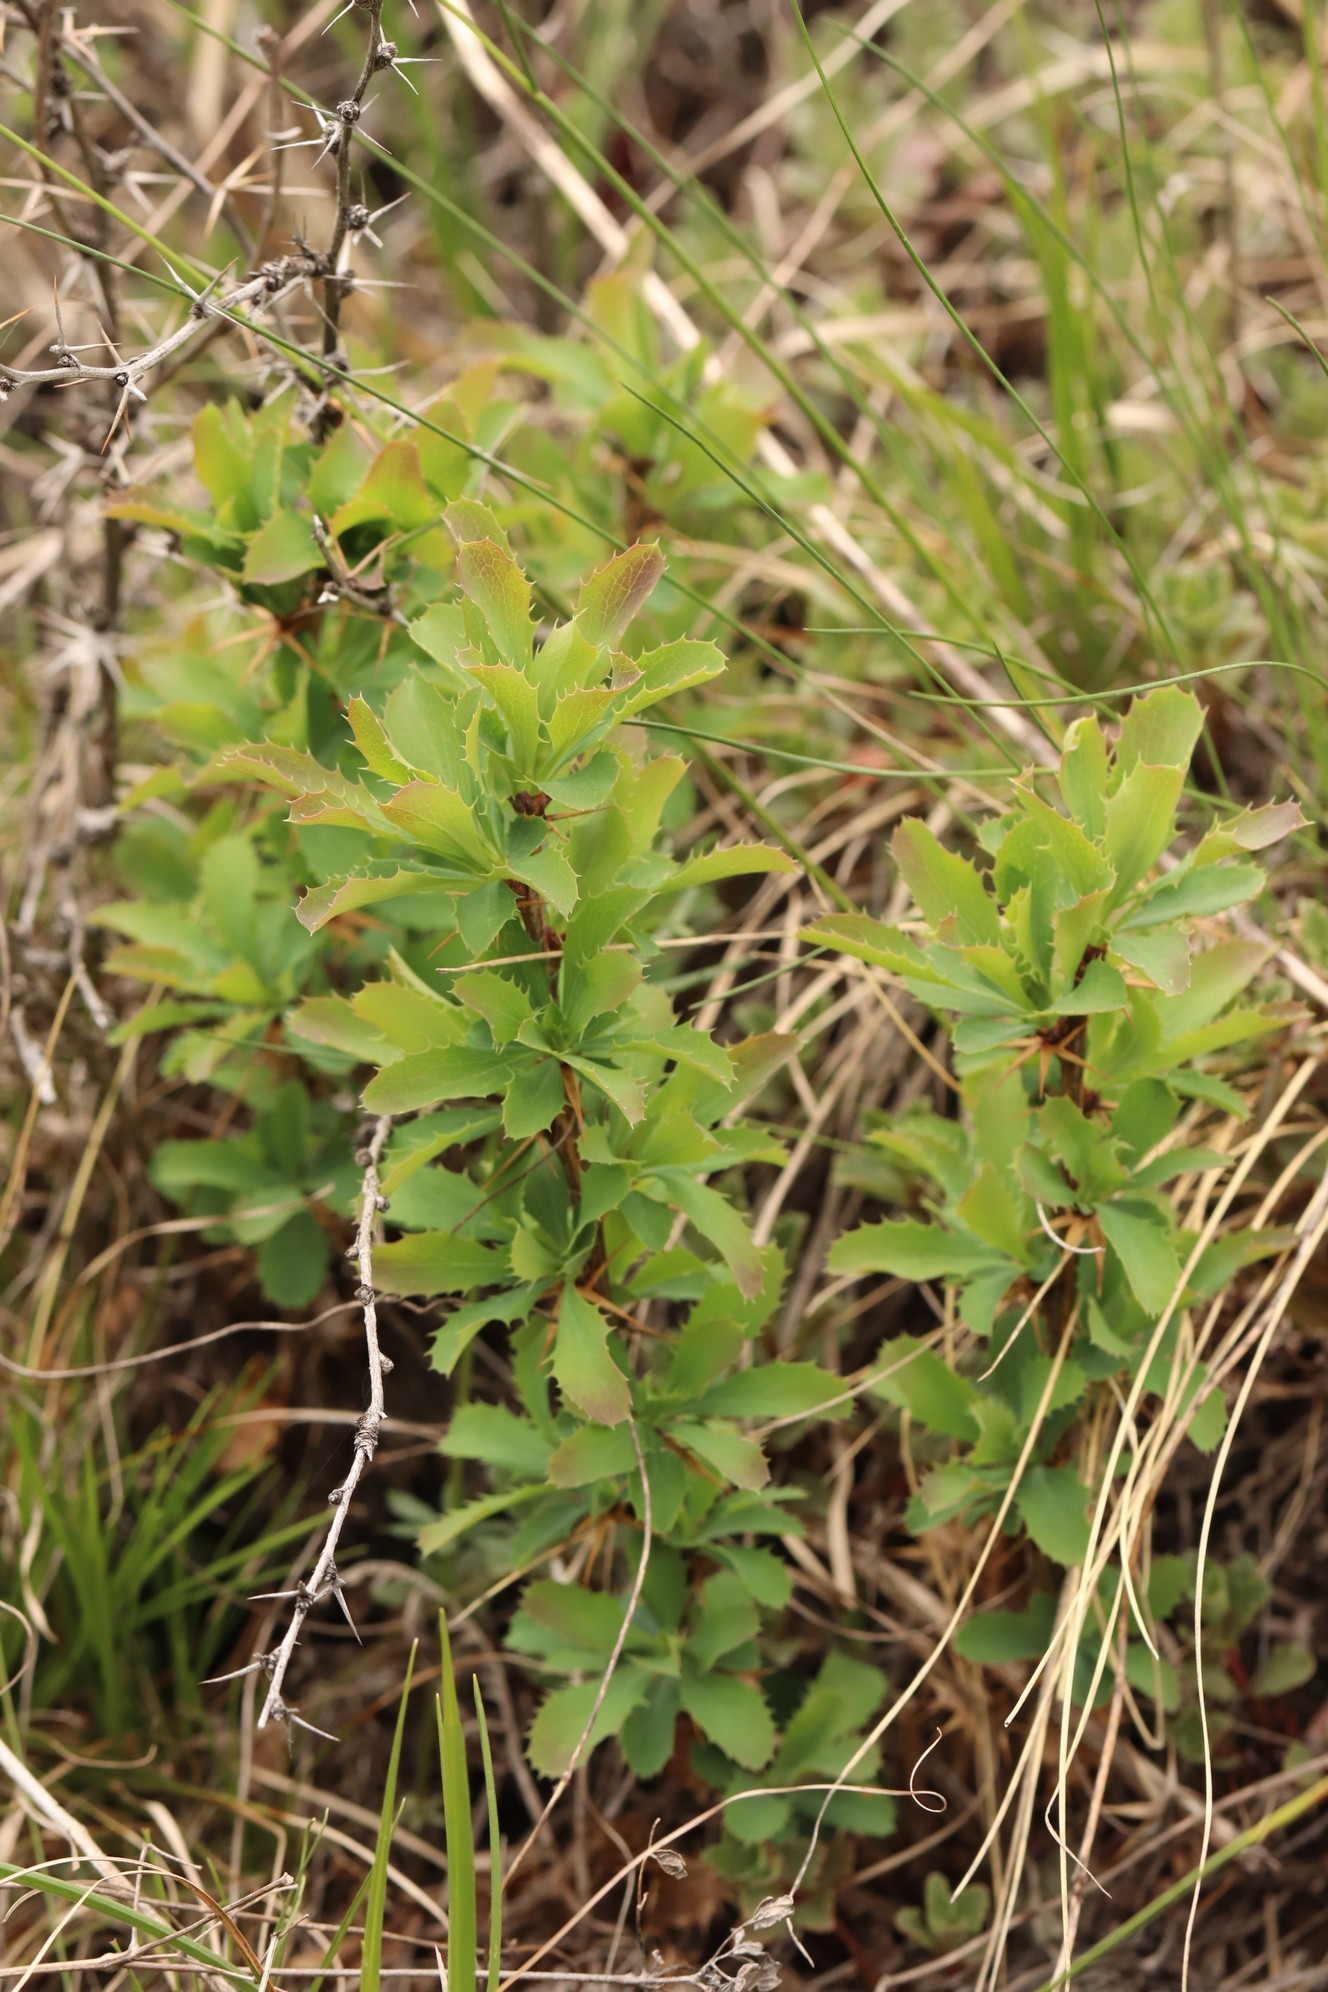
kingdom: Plantae
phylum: Tracheophyta
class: Magnoliopsida
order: Ranunculales
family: Berberidaceae
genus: Berberis
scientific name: Berberis sibirica
